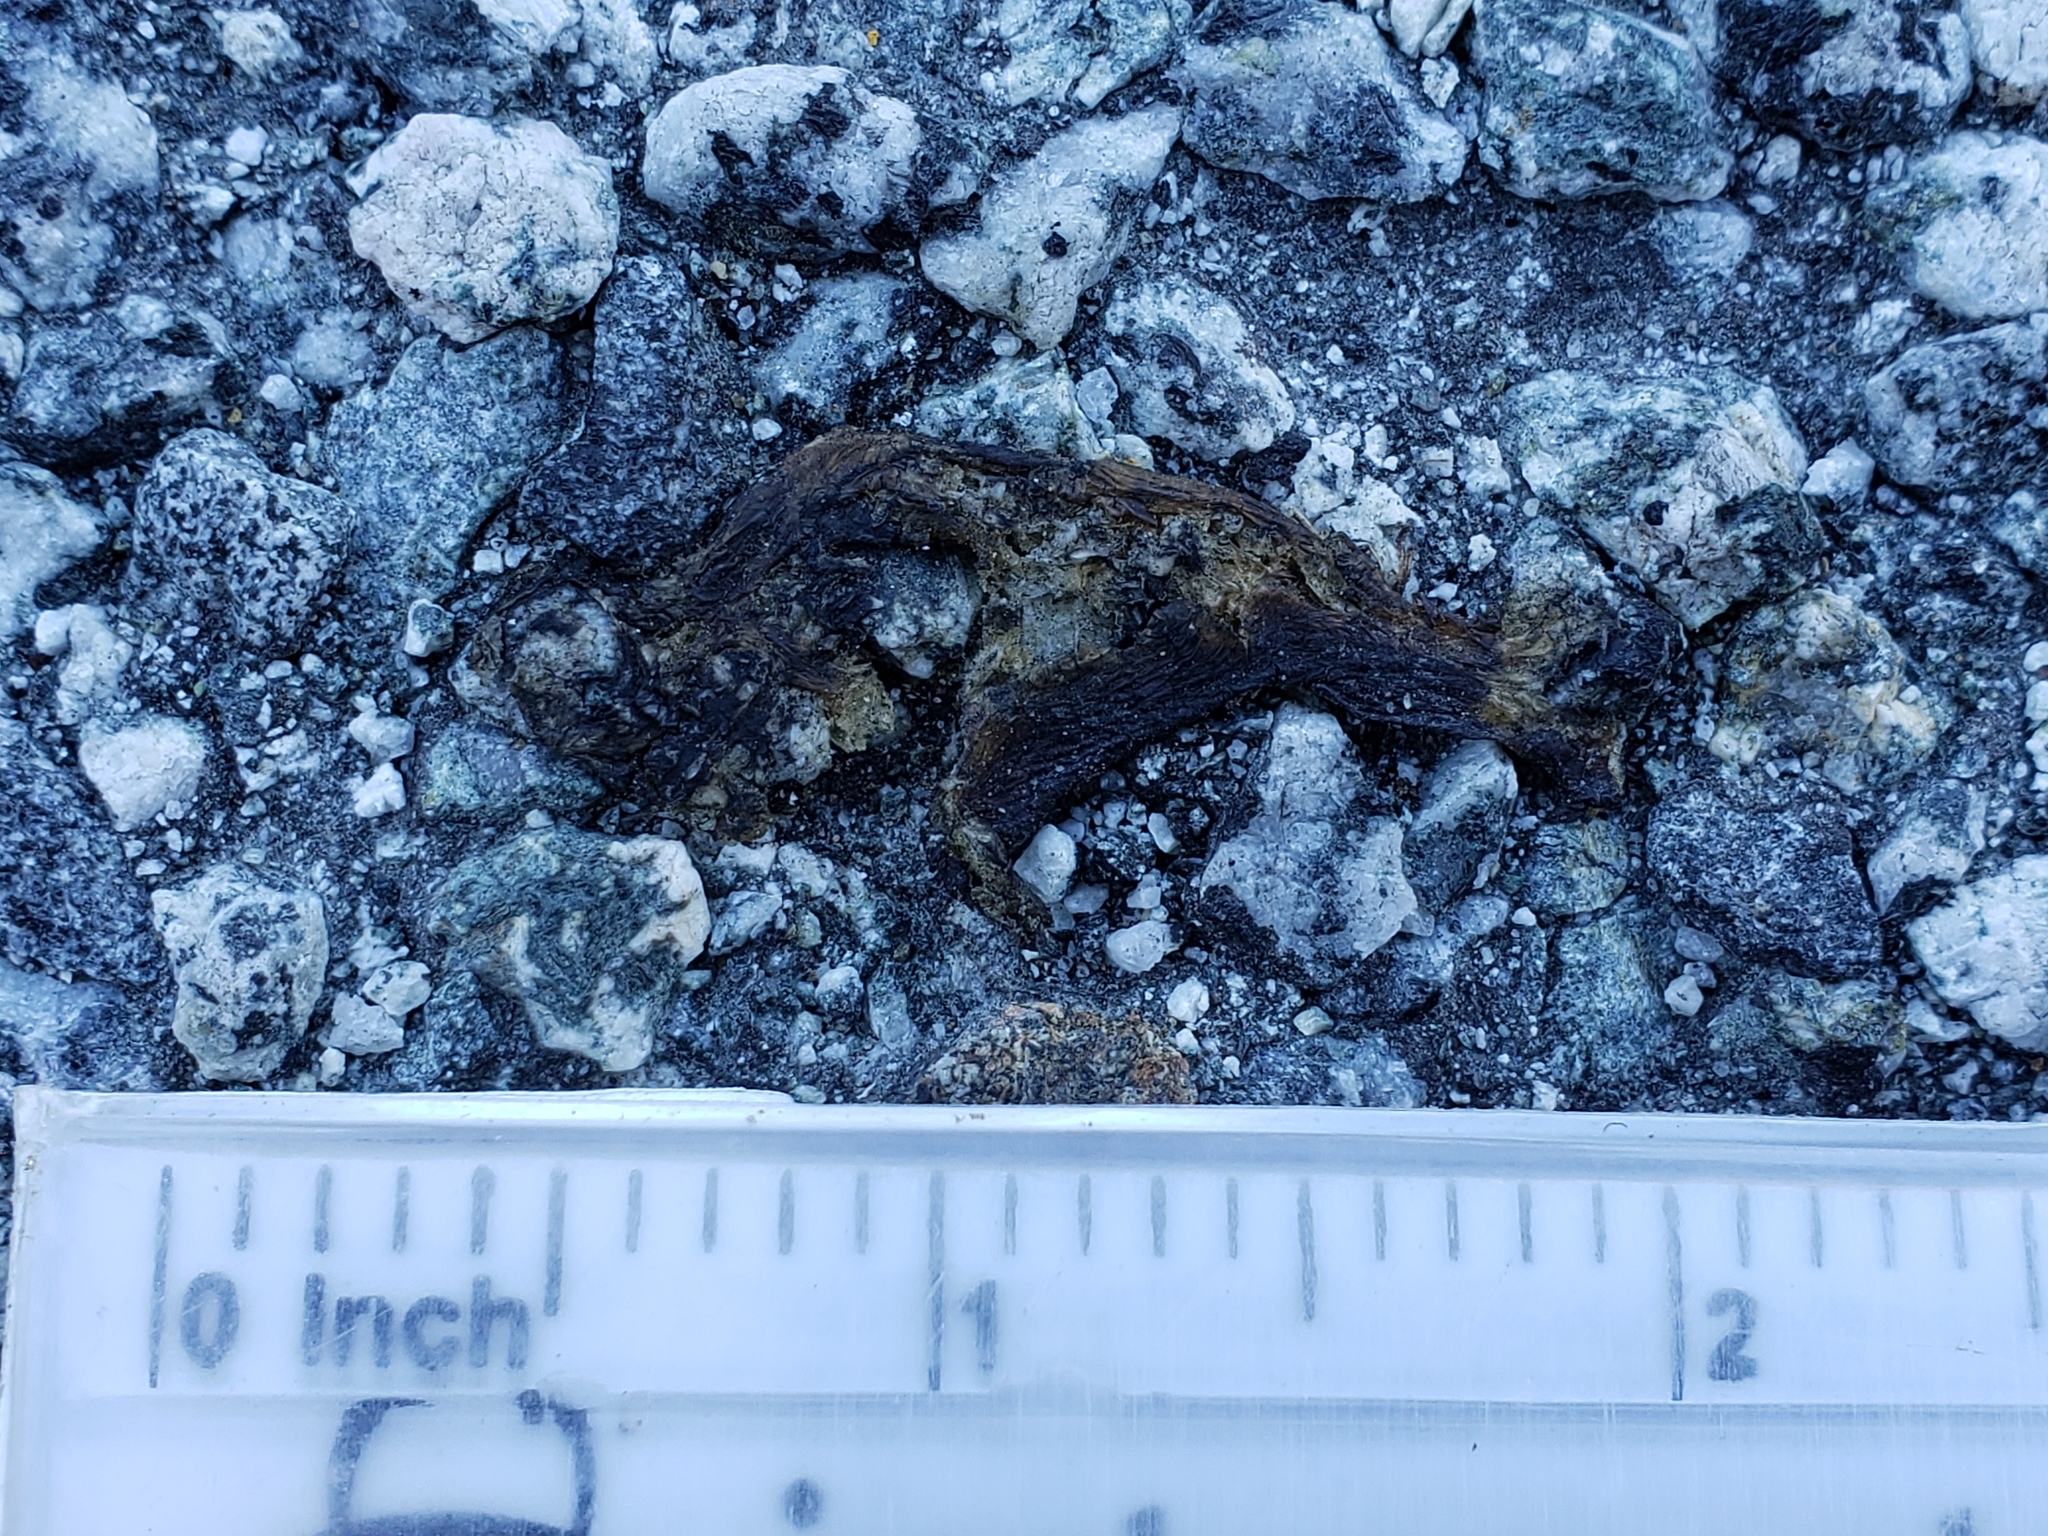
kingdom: Animalia
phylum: Chordata
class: Amphibia
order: Caudata
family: Salamandridae
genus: Taricha
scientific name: Taricha
